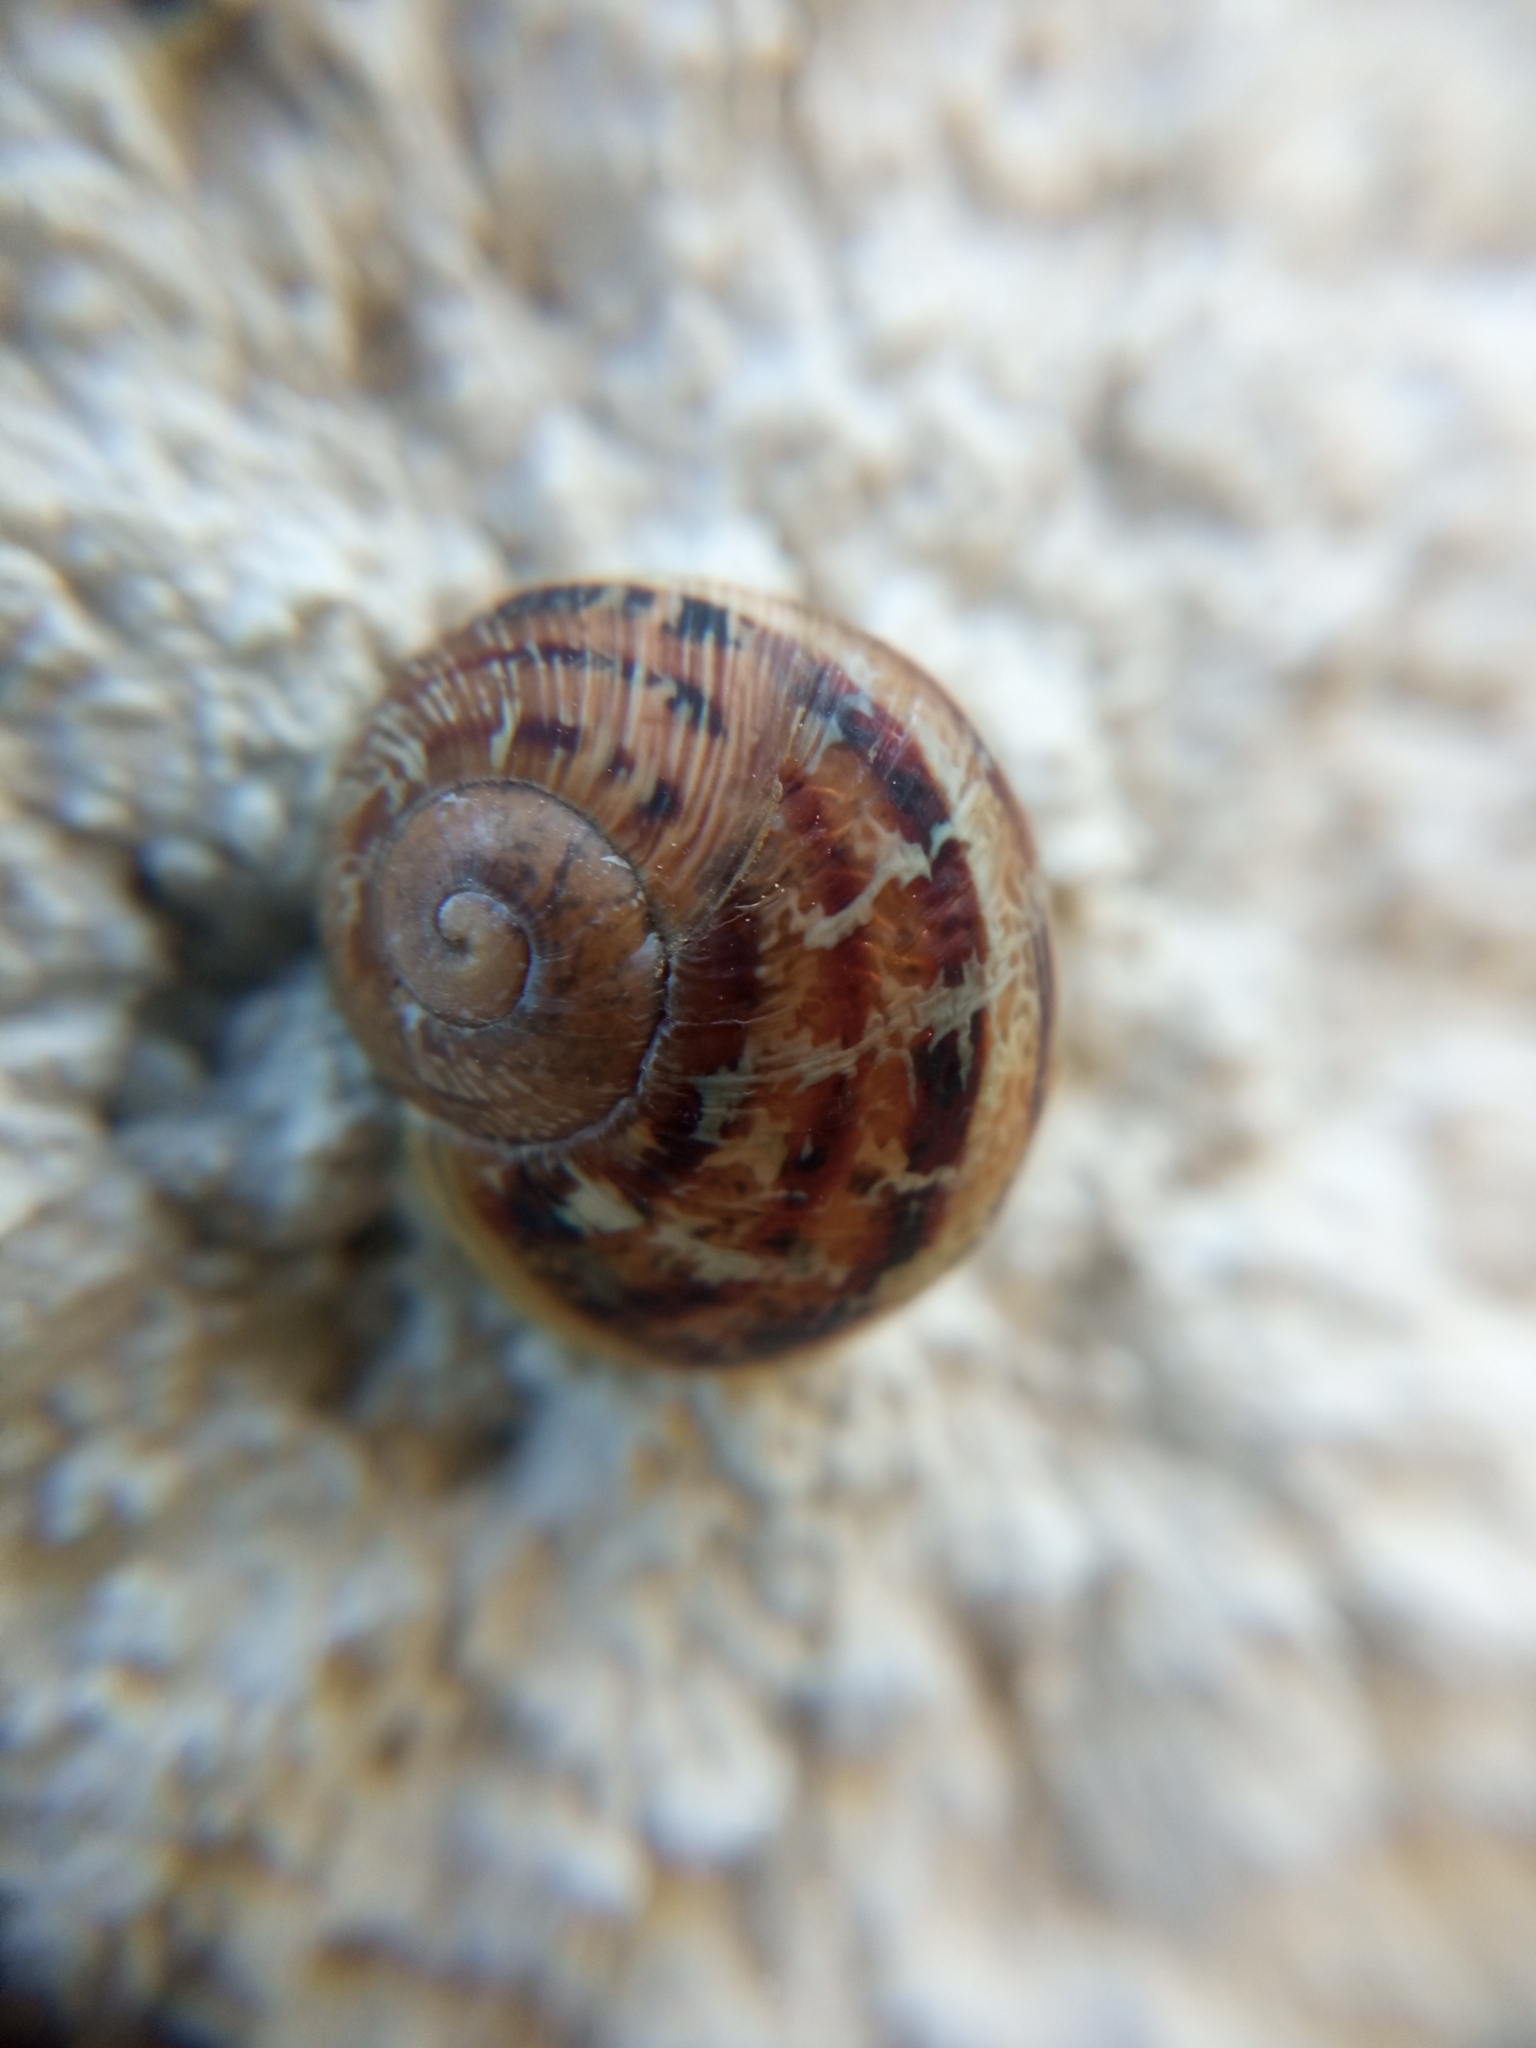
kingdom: Animalia
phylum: Mollusca
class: Gastropoda
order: Stylommatophora
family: Helicidae
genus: Cornu
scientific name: Cornu aspersum
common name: Brown garden snail
